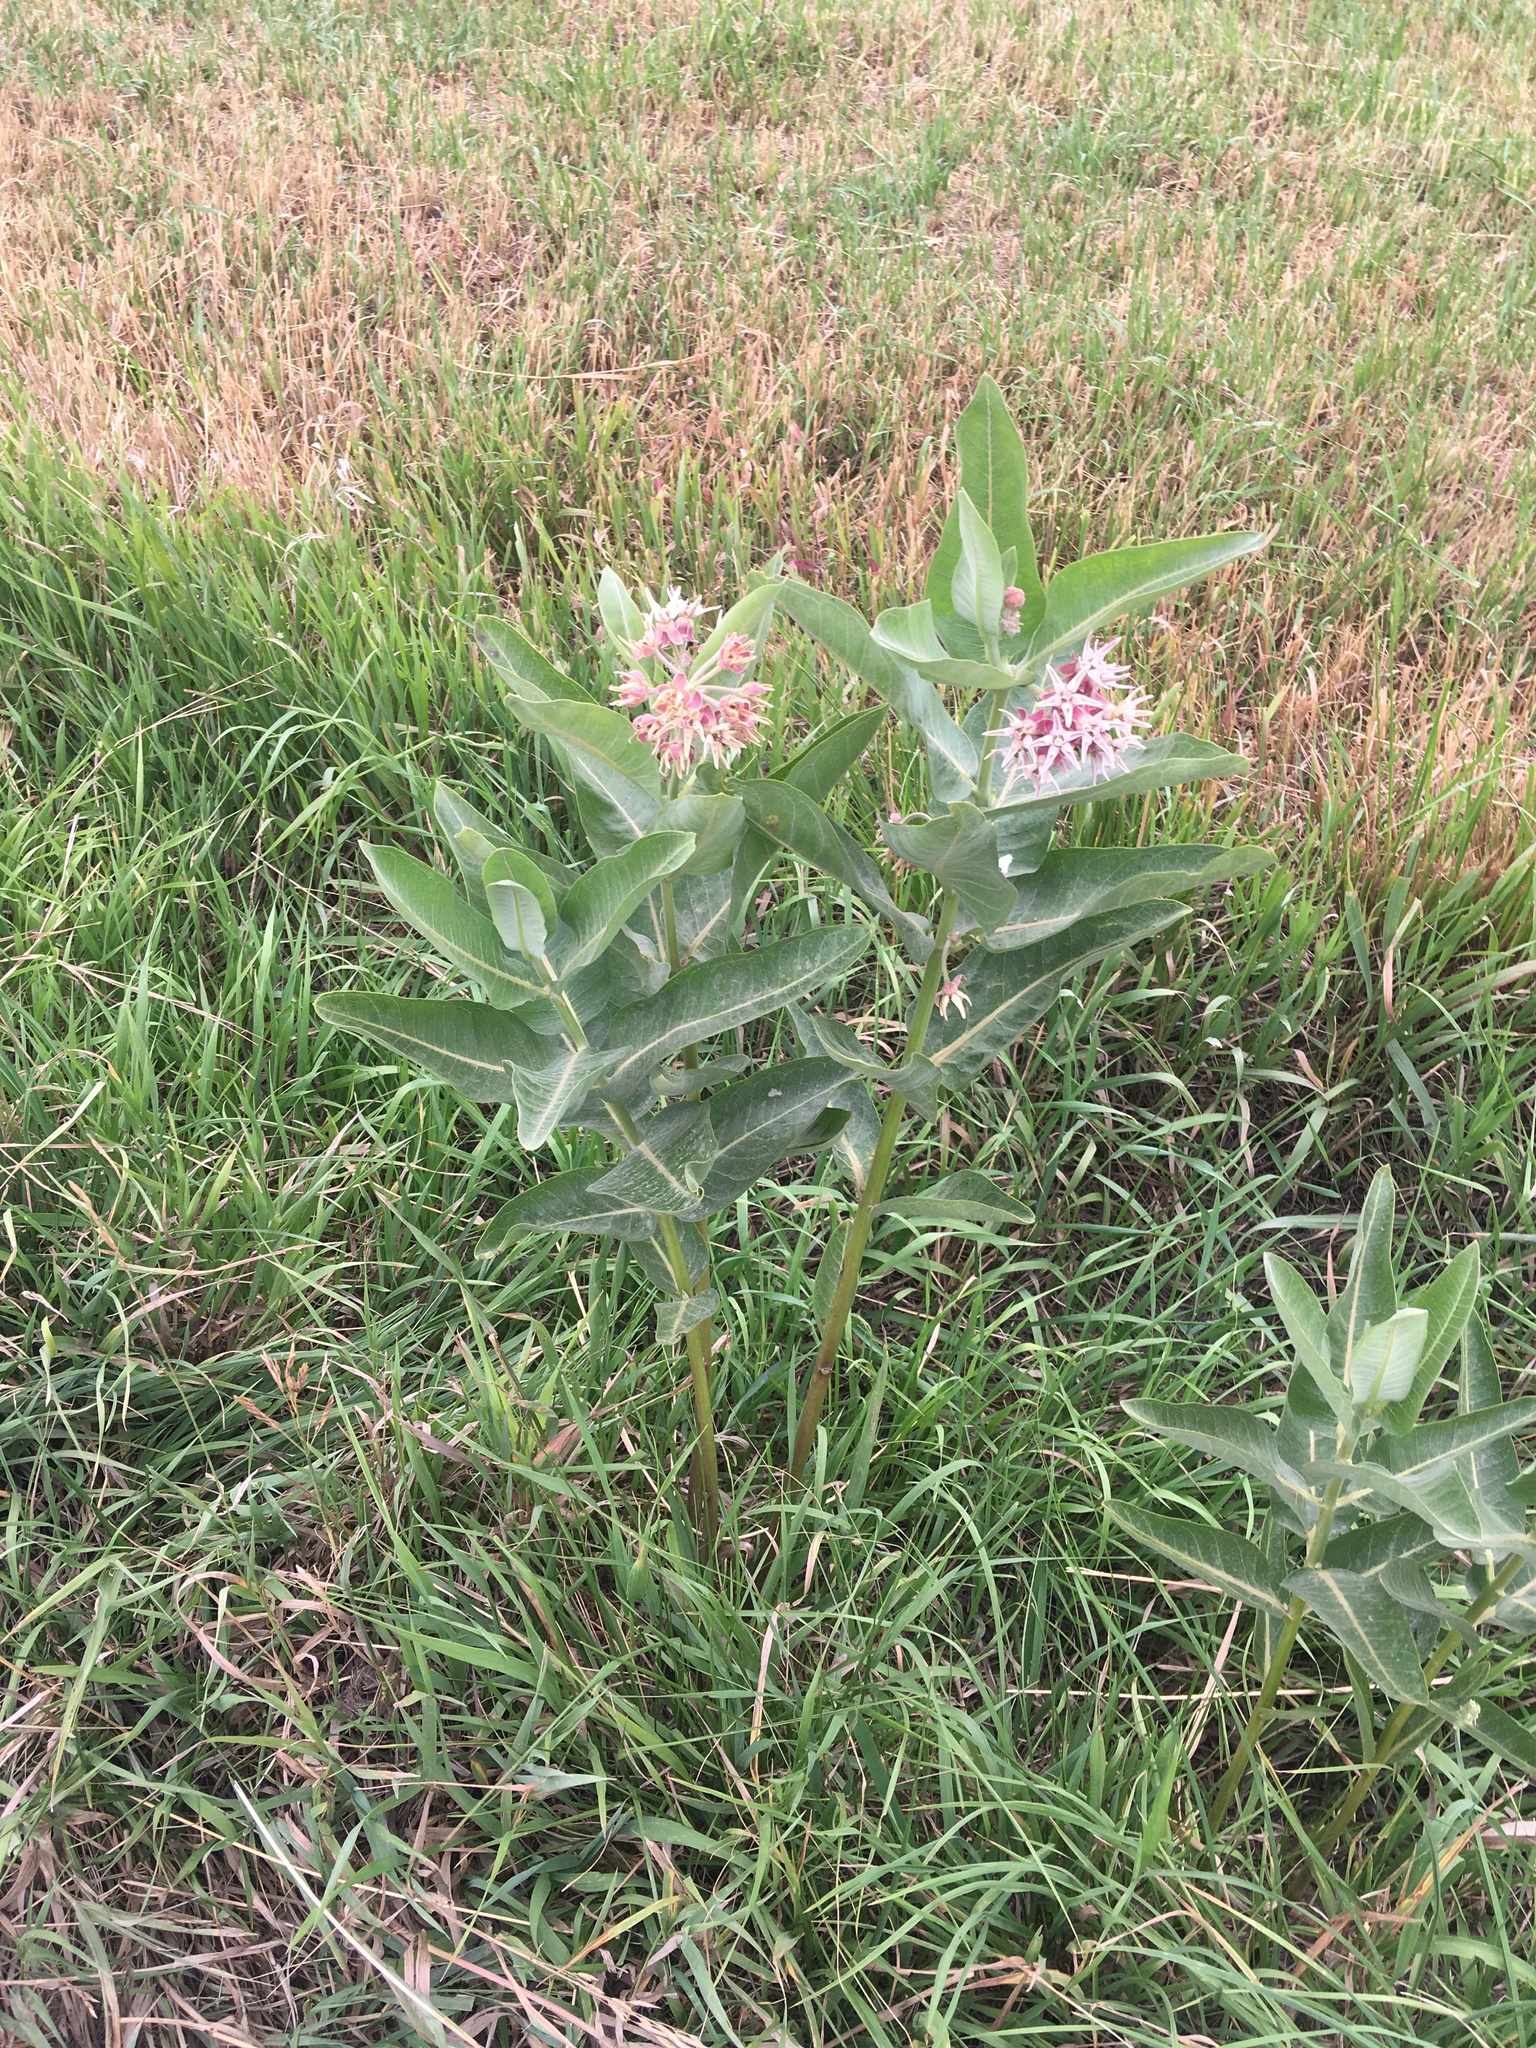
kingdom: Plantae
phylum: Tracheophyta
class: Magnoliopsida
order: Gentianales
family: Apocynaceae
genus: Asclepias
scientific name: Asclepias speciosa
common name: Showy milkweed
